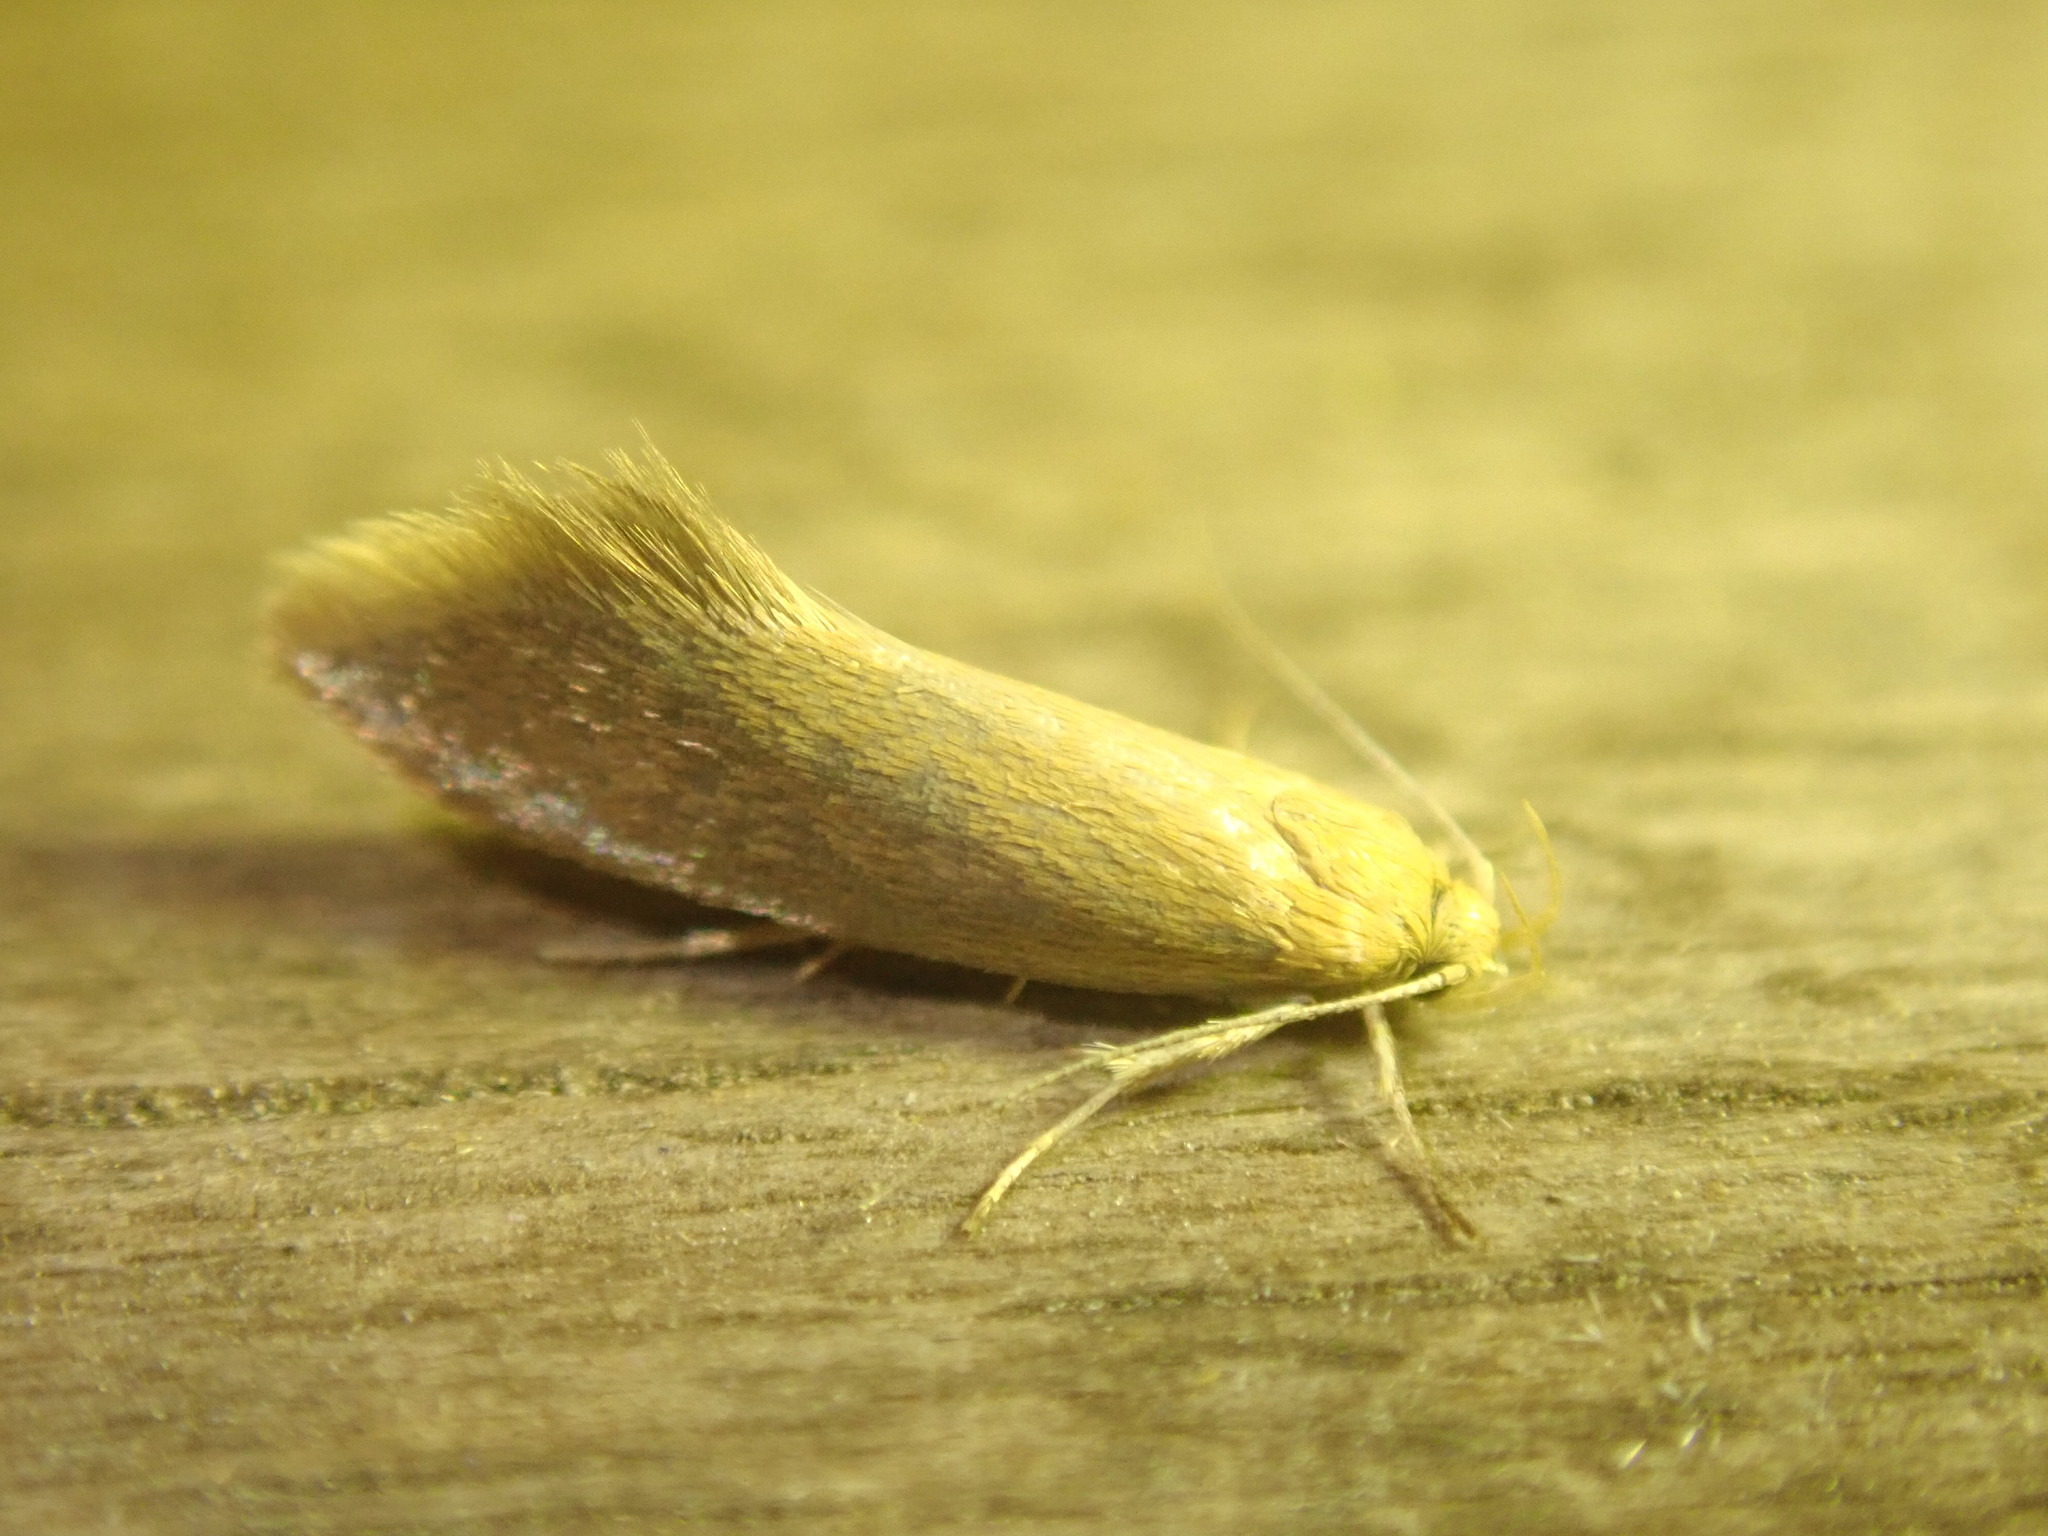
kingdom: Animalia
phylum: Arthropoda
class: Insecta
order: Lepidoptera
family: Oecophoridae
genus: Borkhausenia
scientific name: Borkhausenia Crassa tinctella
